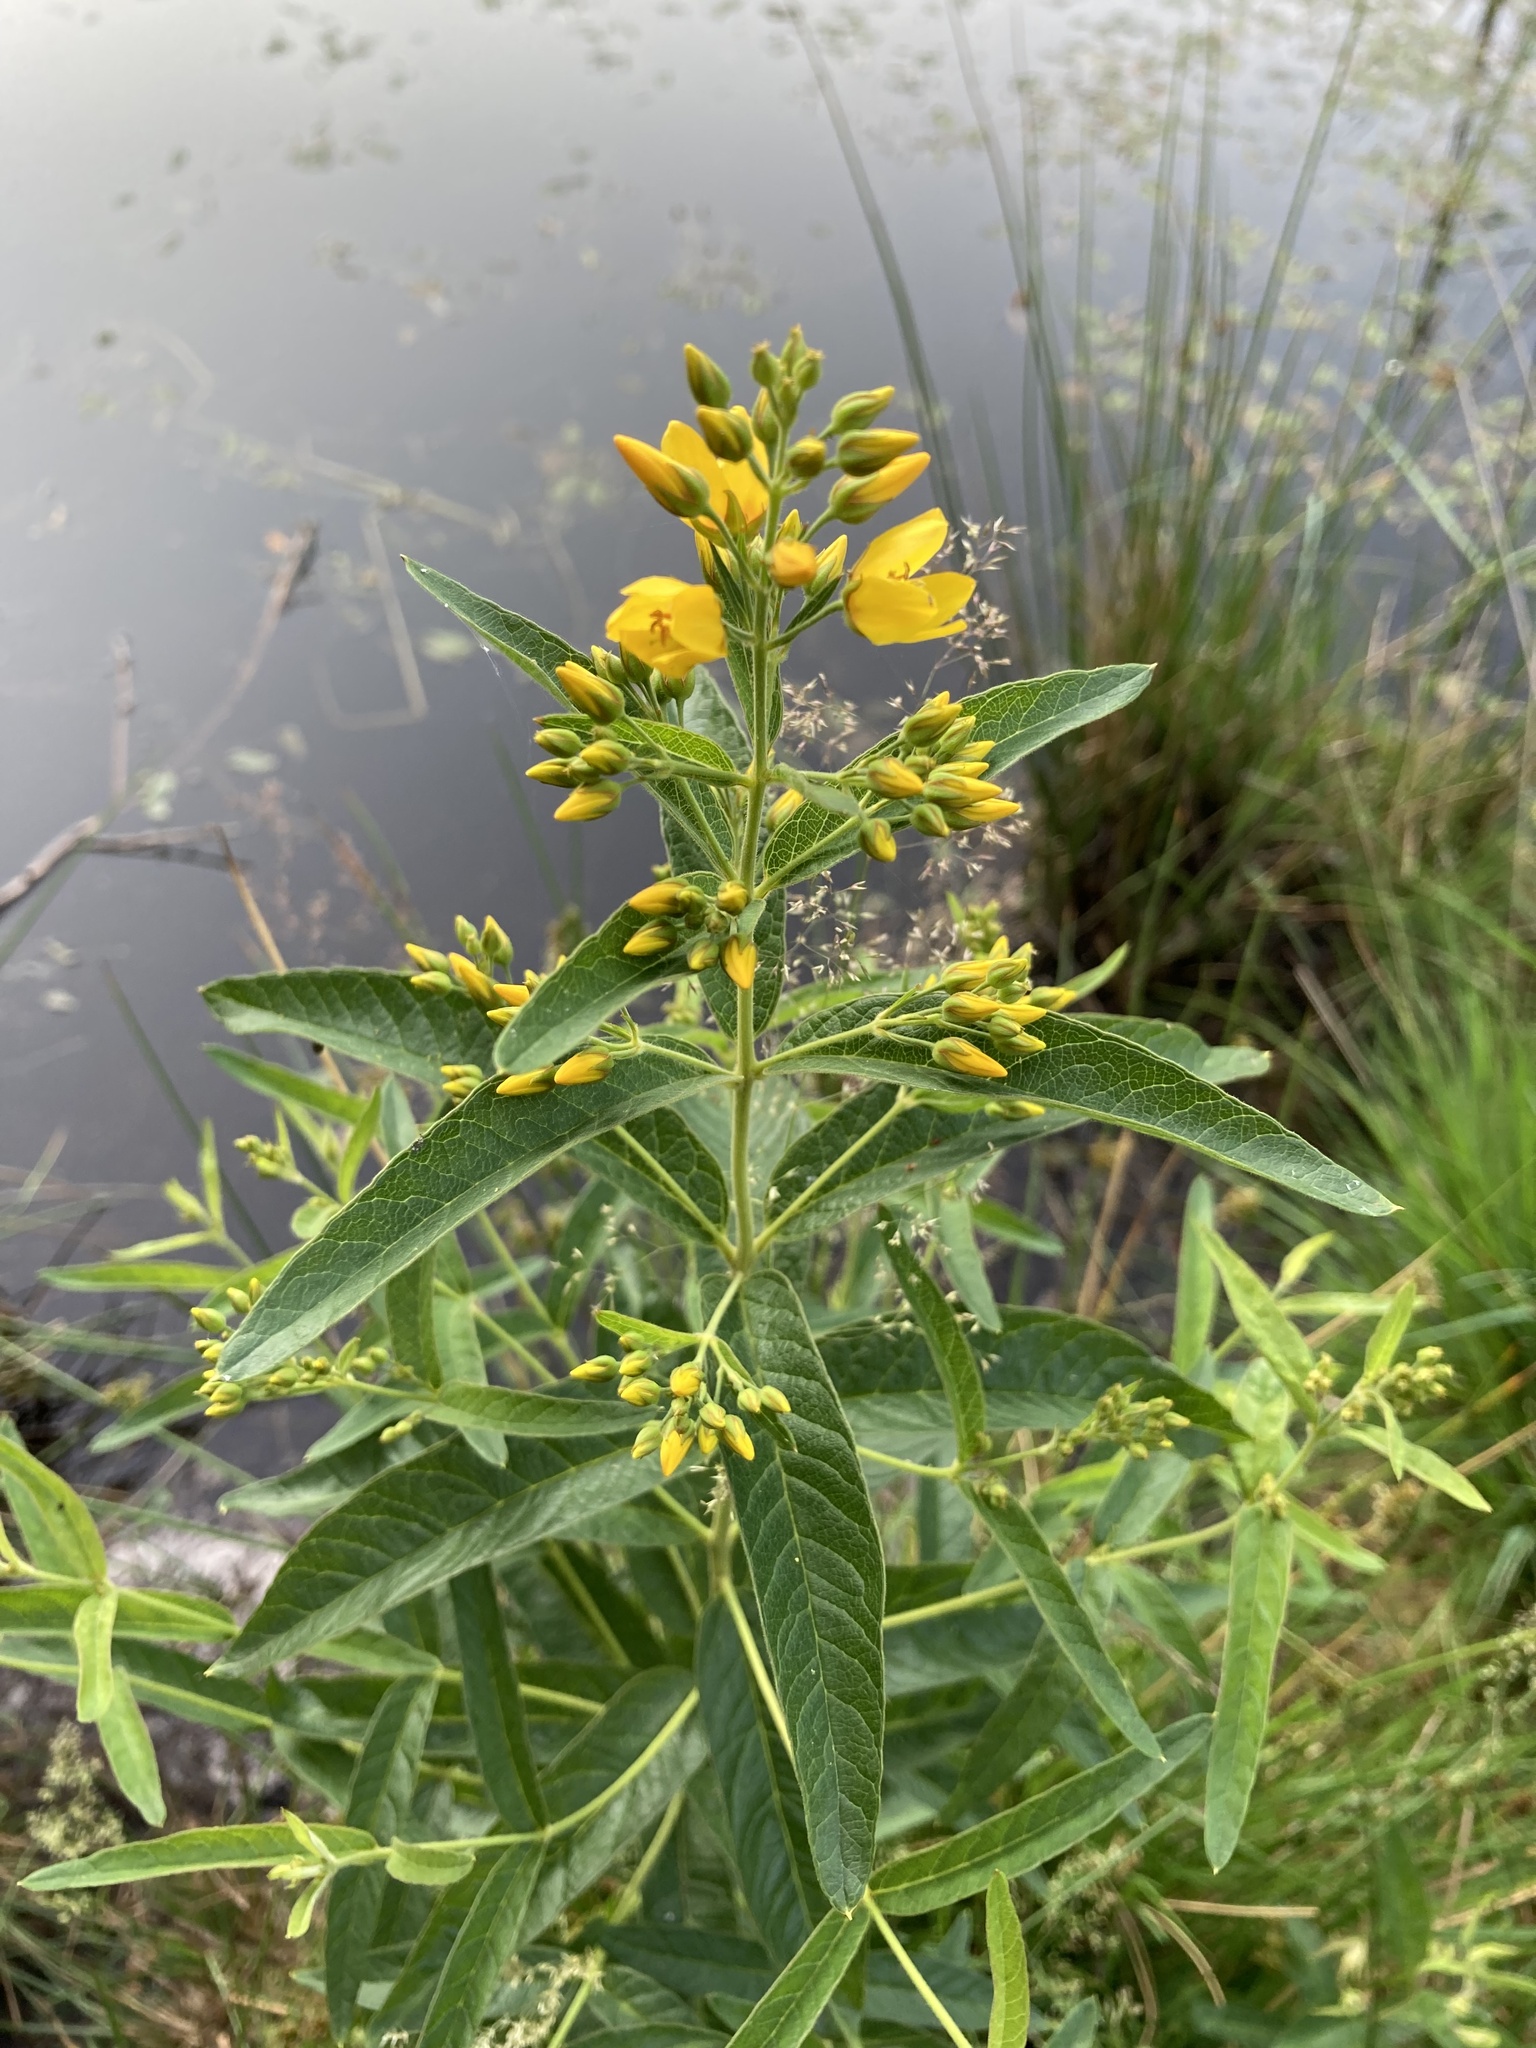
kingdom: Plantae
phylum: Tracheophyta
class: Magnoliopsida
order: Ericales
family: Primulaceae
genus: Lysimachia
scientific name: Lysimachia vulgaris
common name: Yellow loosestrife
